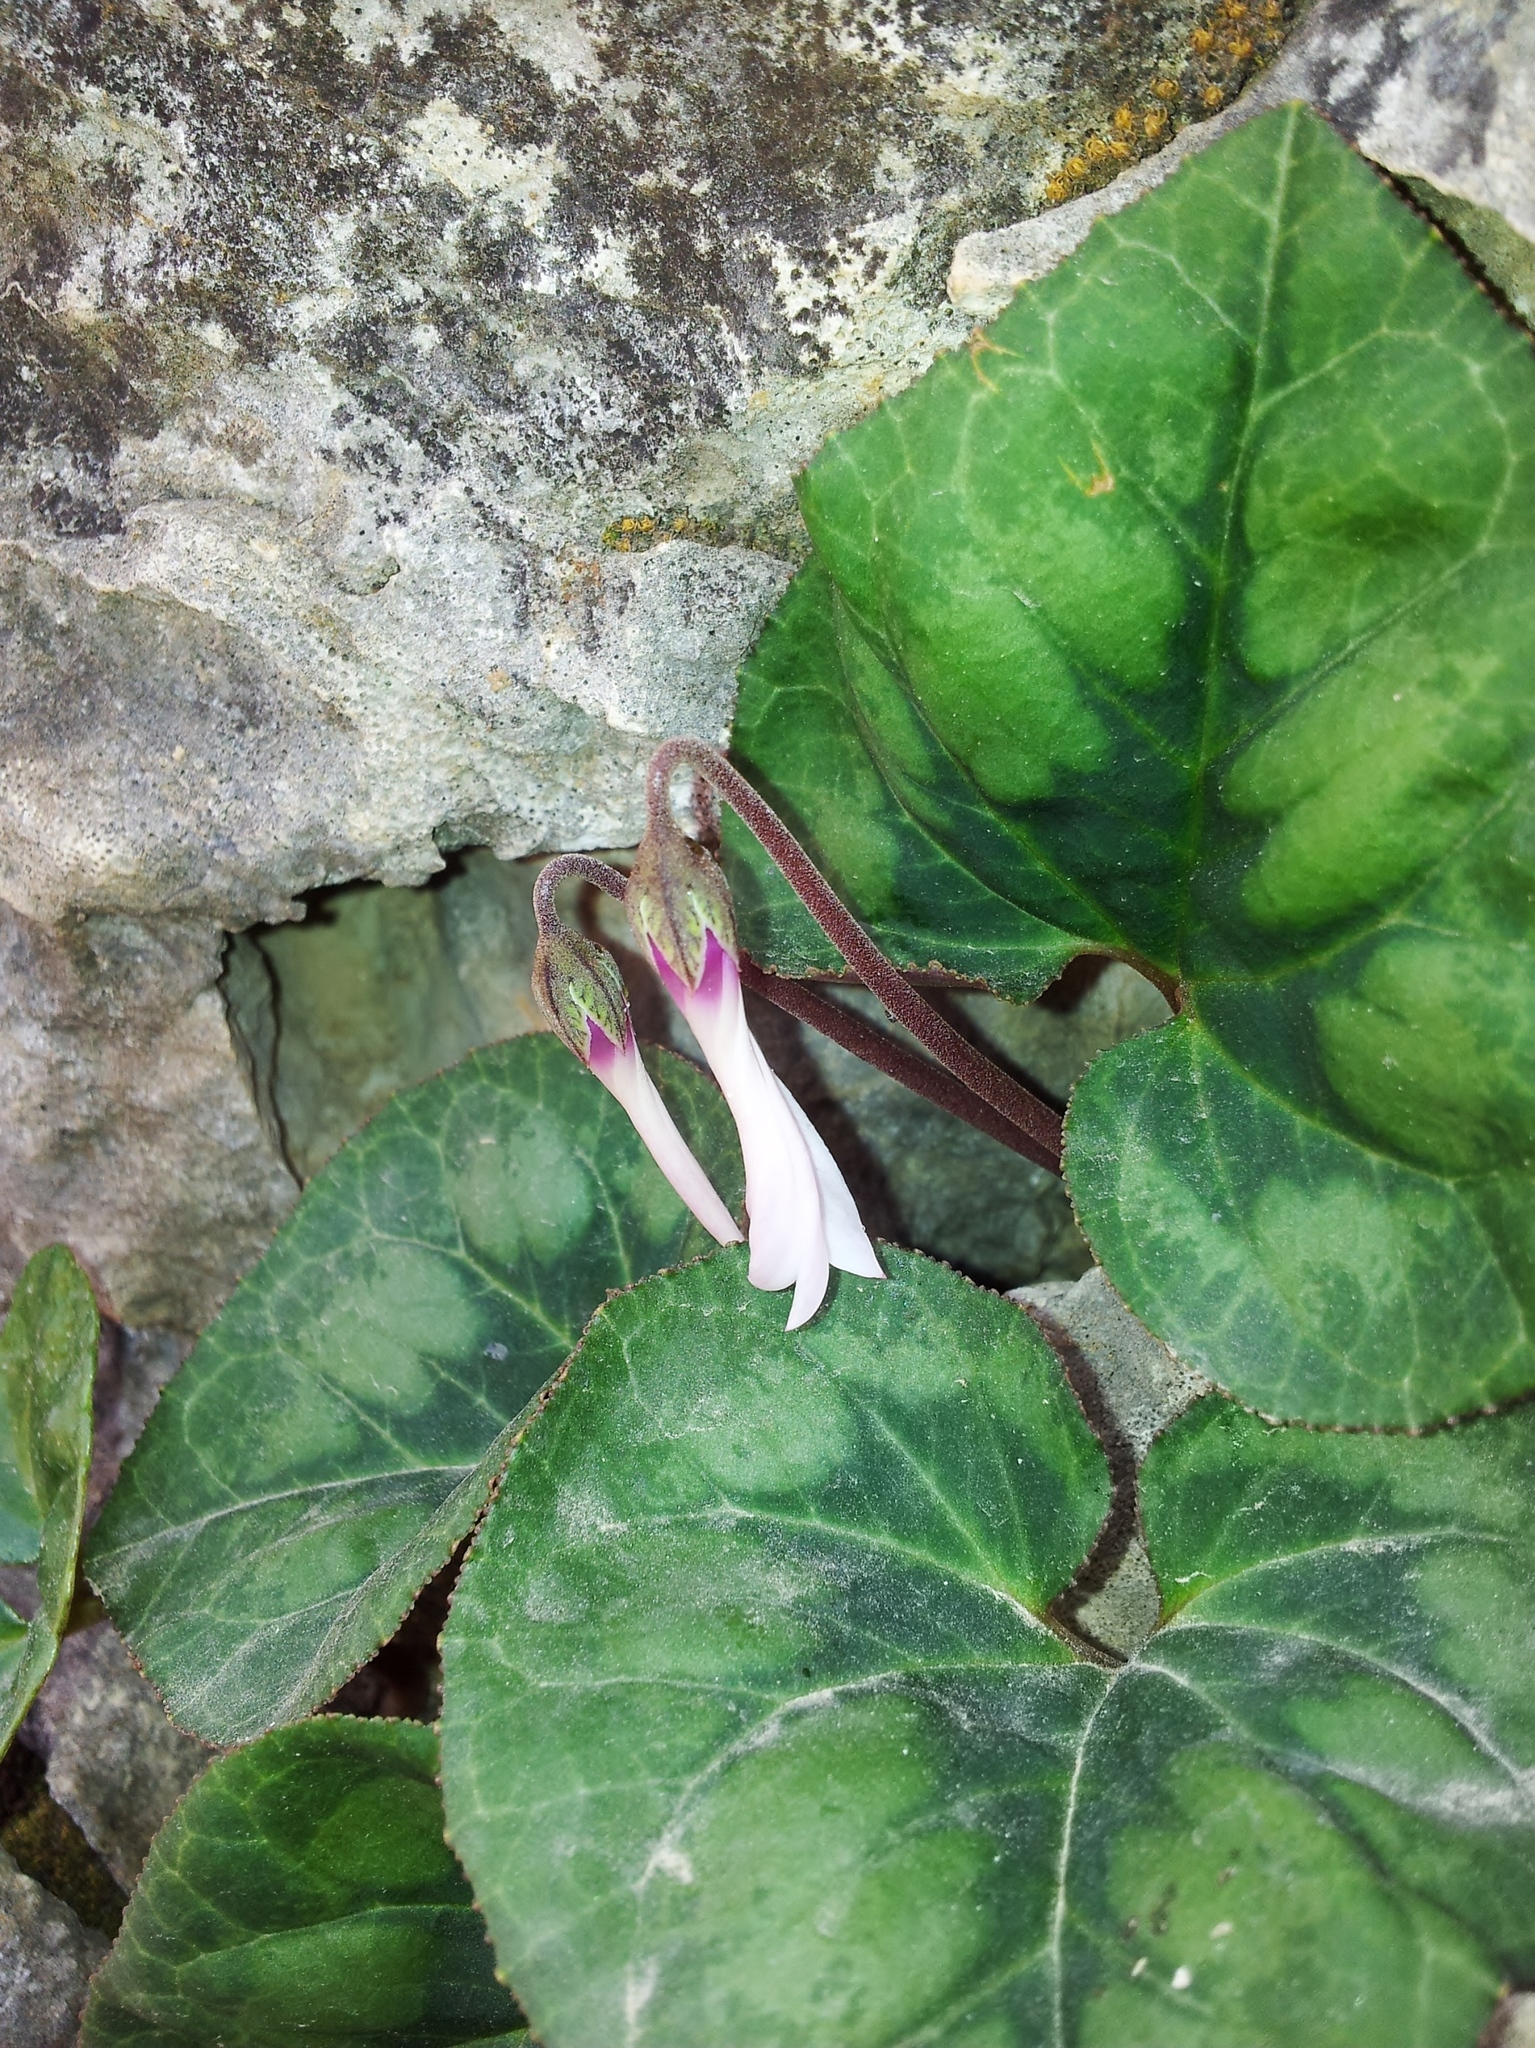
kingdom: Plantae
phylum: Tracheophyta
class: Magnoliopsida
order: Ericales
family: Primulaceae
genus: Cyclamen
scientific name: Cyclamen persicum
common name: Florist's cyclamen
